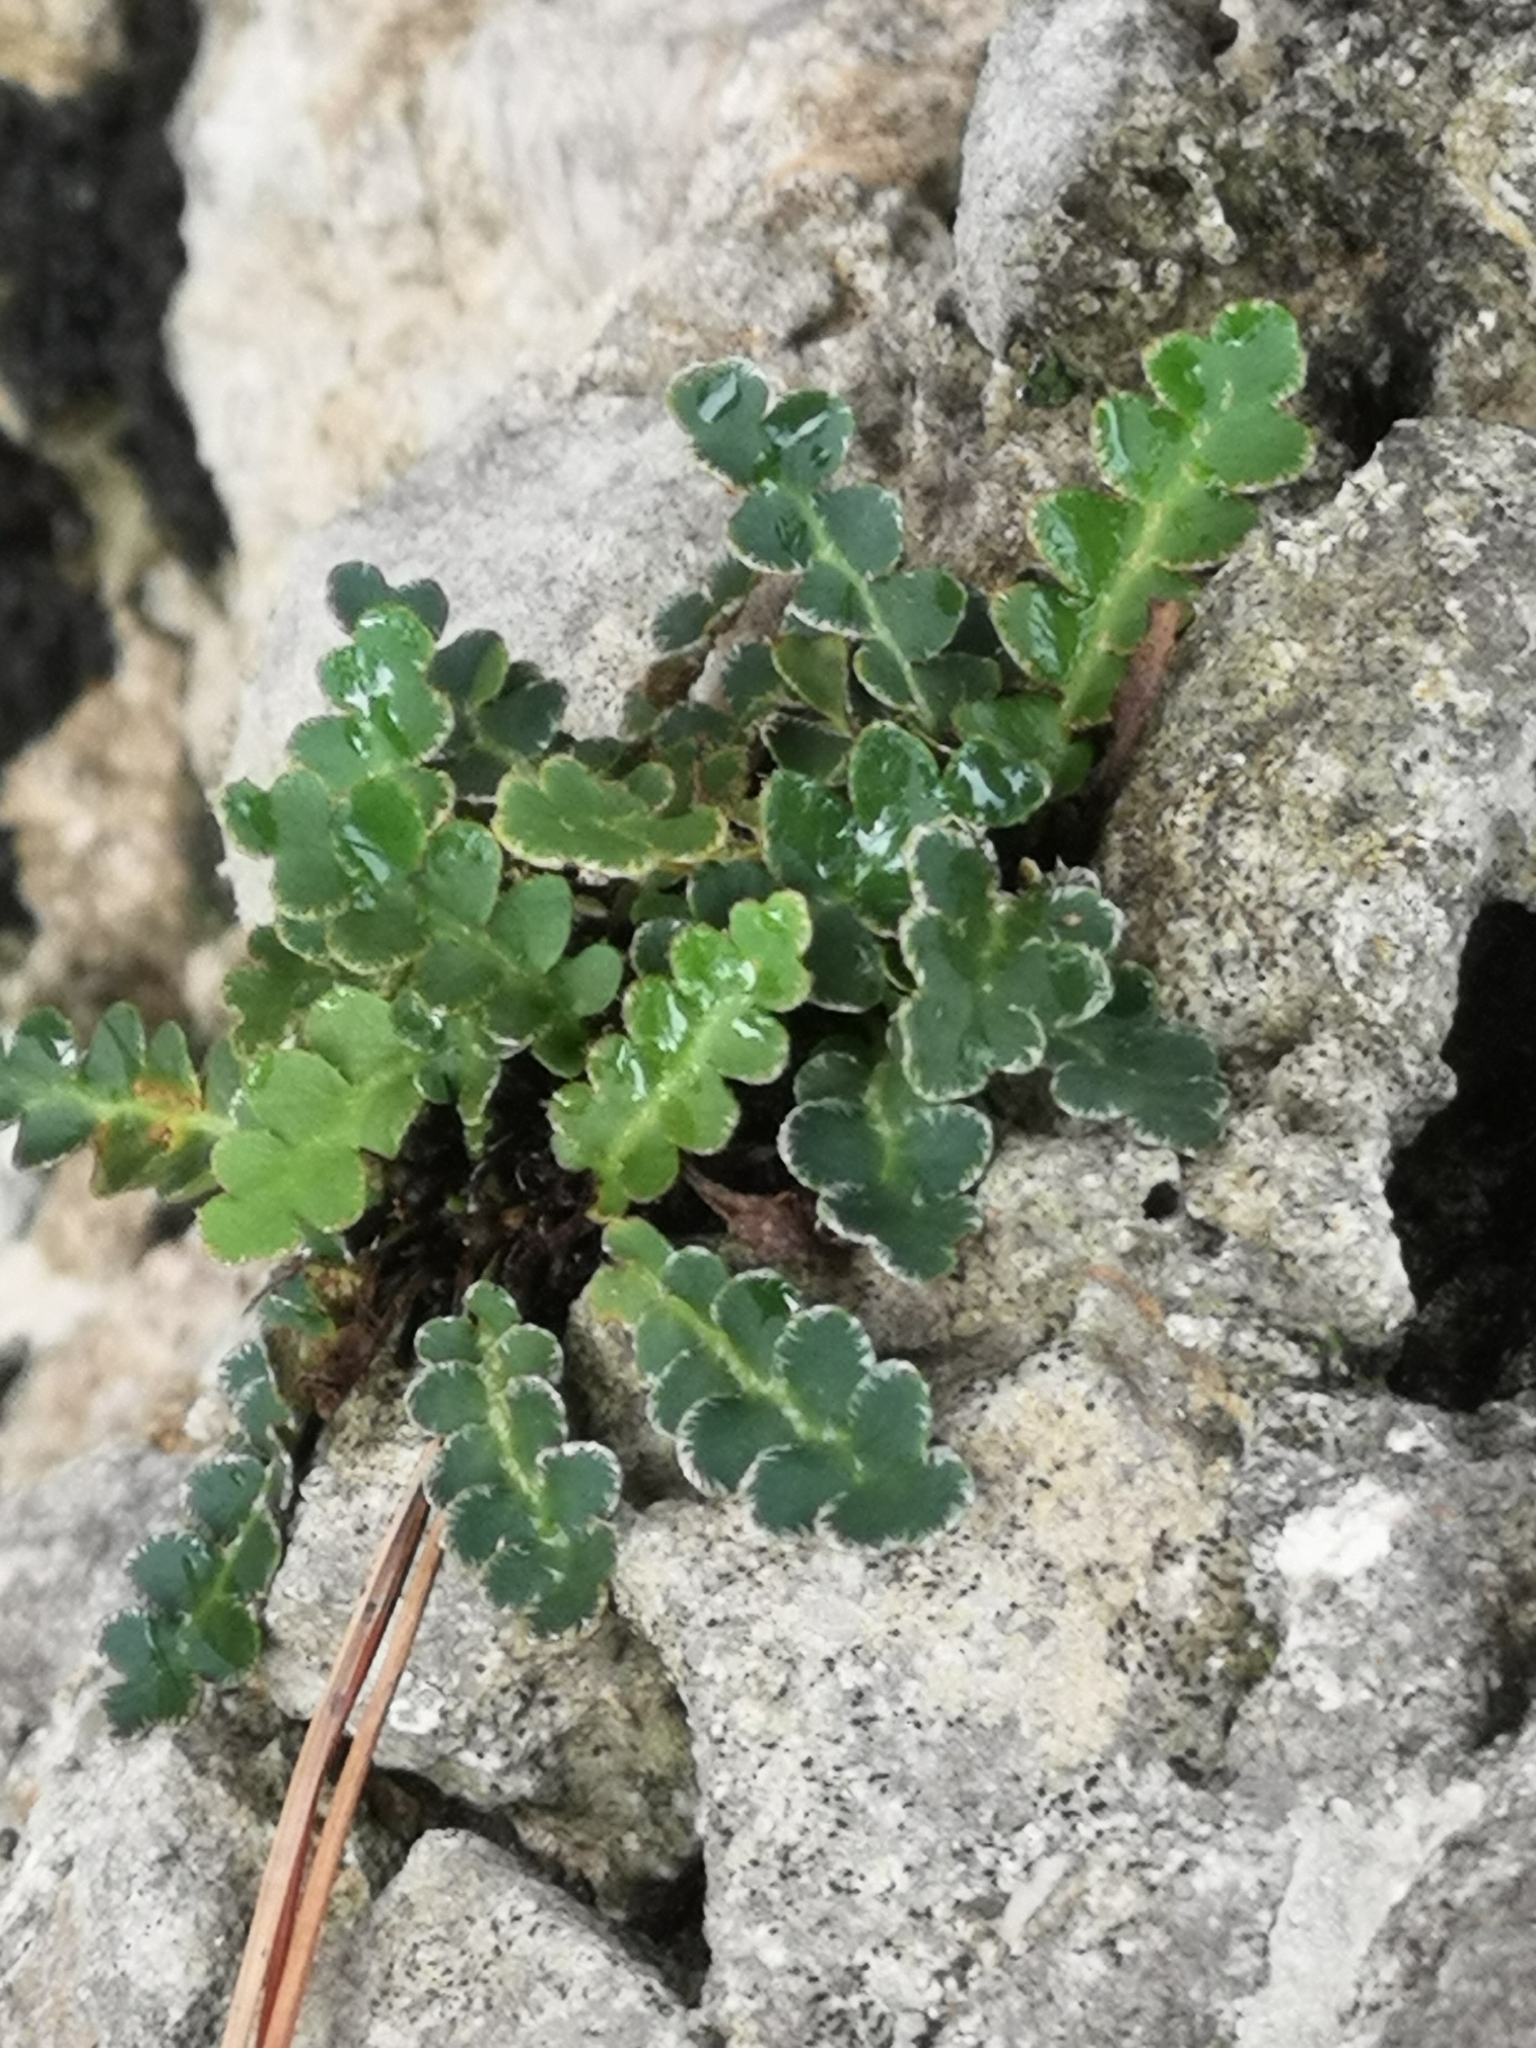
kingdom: Plantae
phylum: Tracheophyta
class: Polypodiopsida
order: Polypodiales
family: Aspleniaceae
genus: Asplenium
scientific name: Asplenium ceterach
